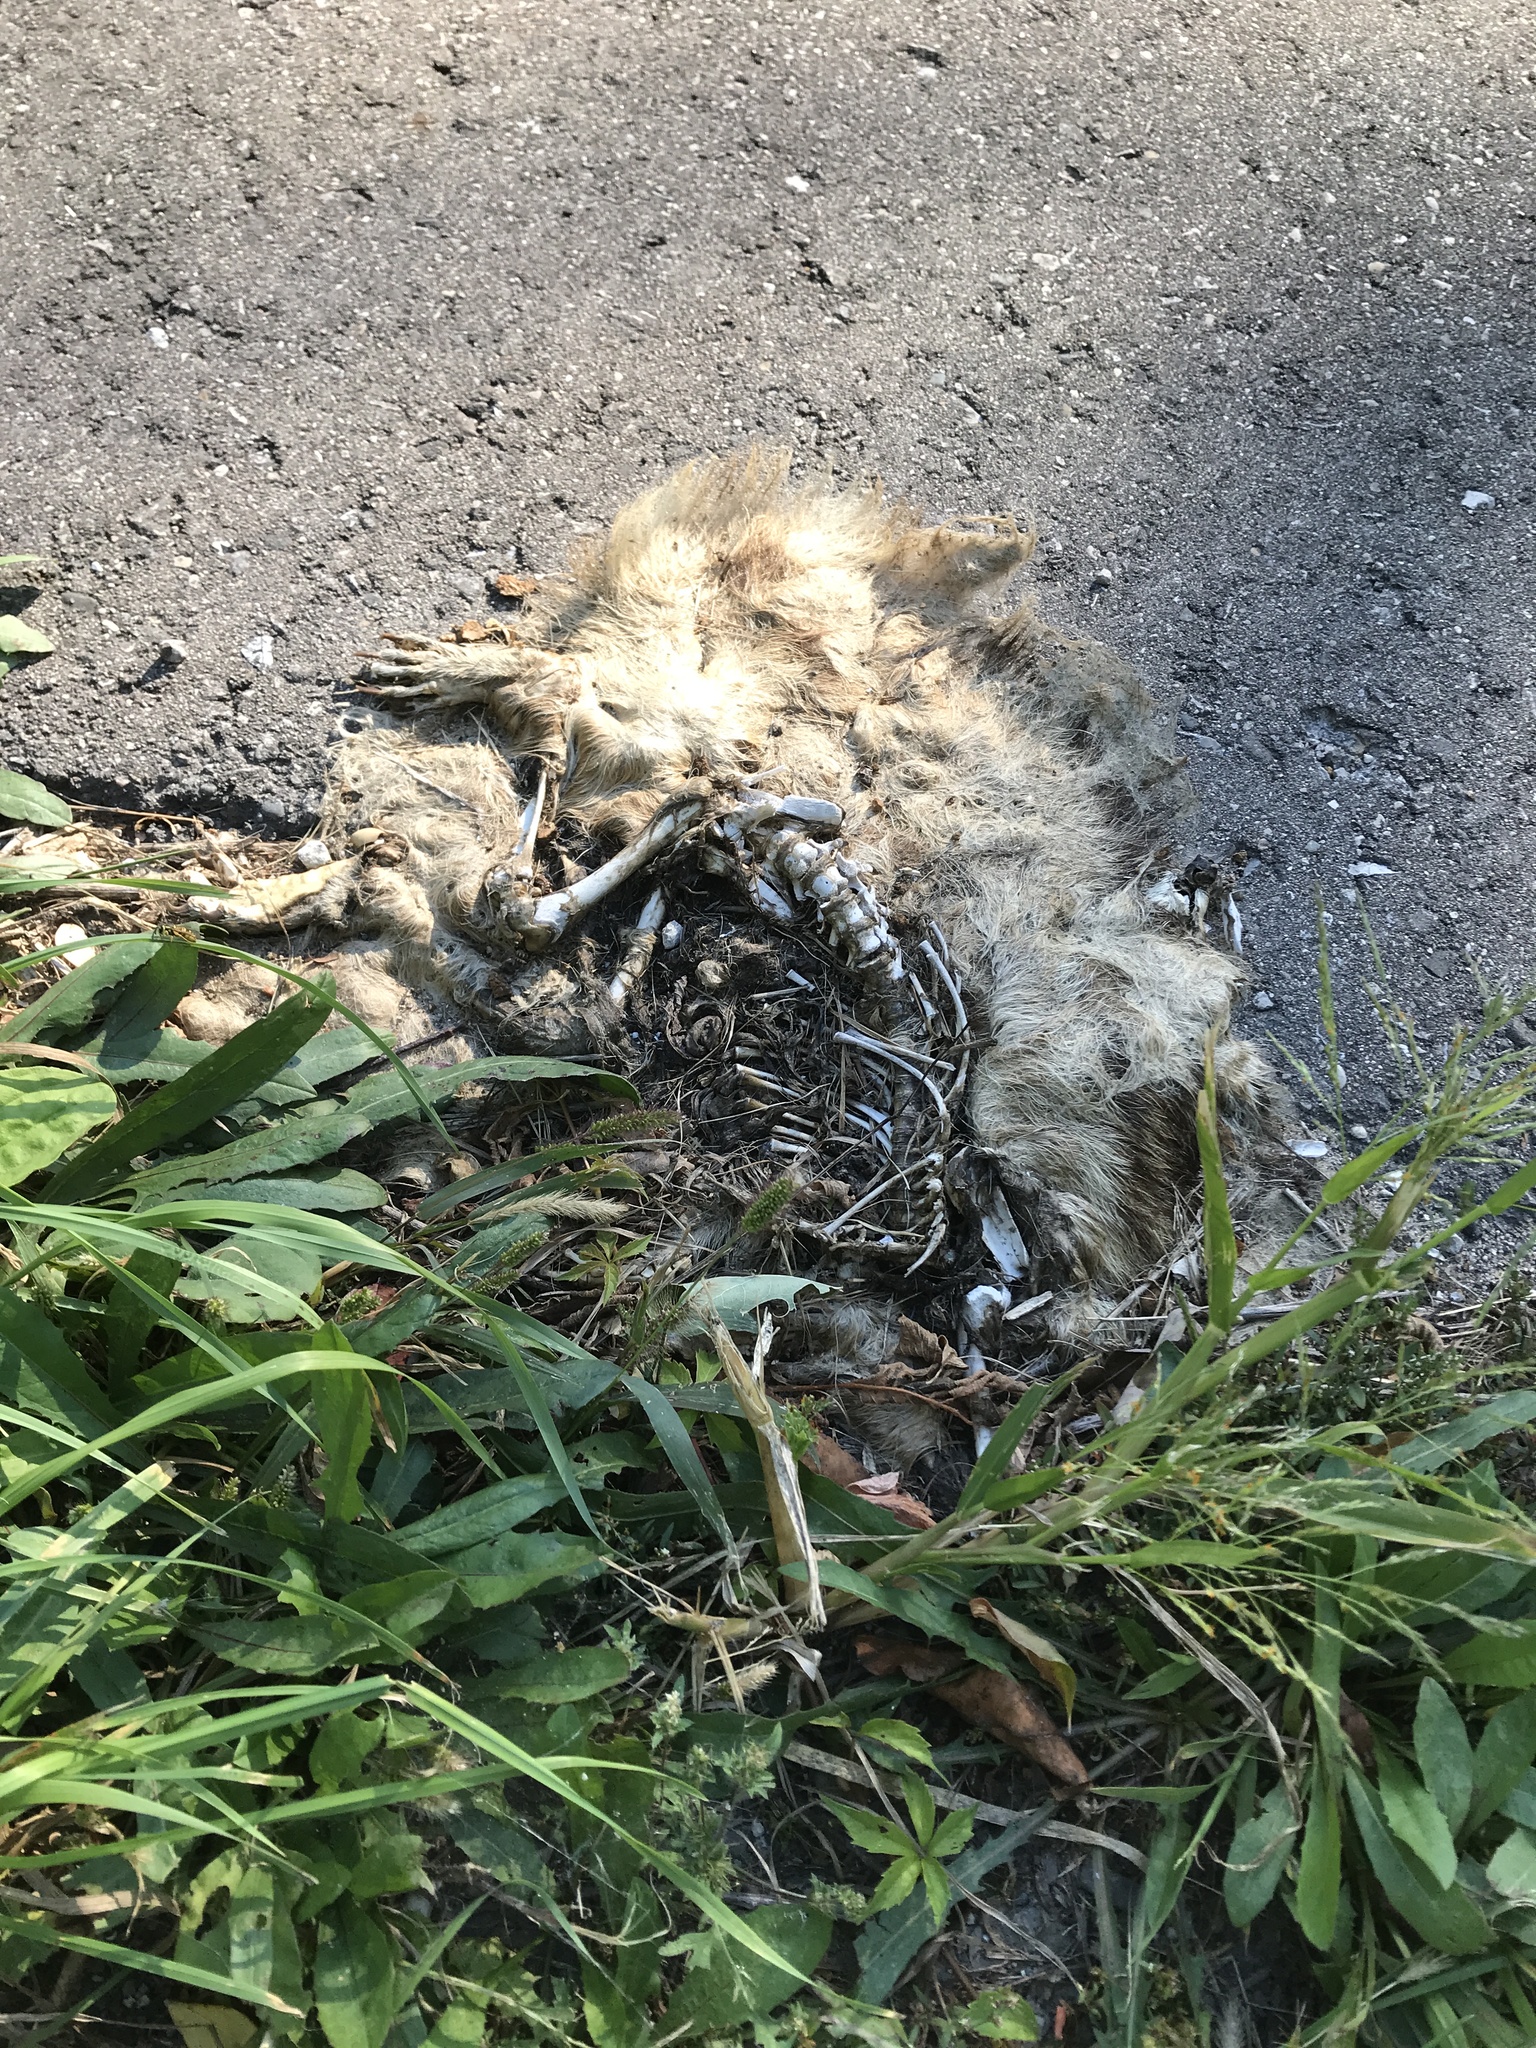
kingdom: Animalia
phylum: Chordata
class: Mammalia
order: Carnivora
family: Procyonidae
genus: Procyon
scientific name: Procyon lotor
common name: Raccoon
